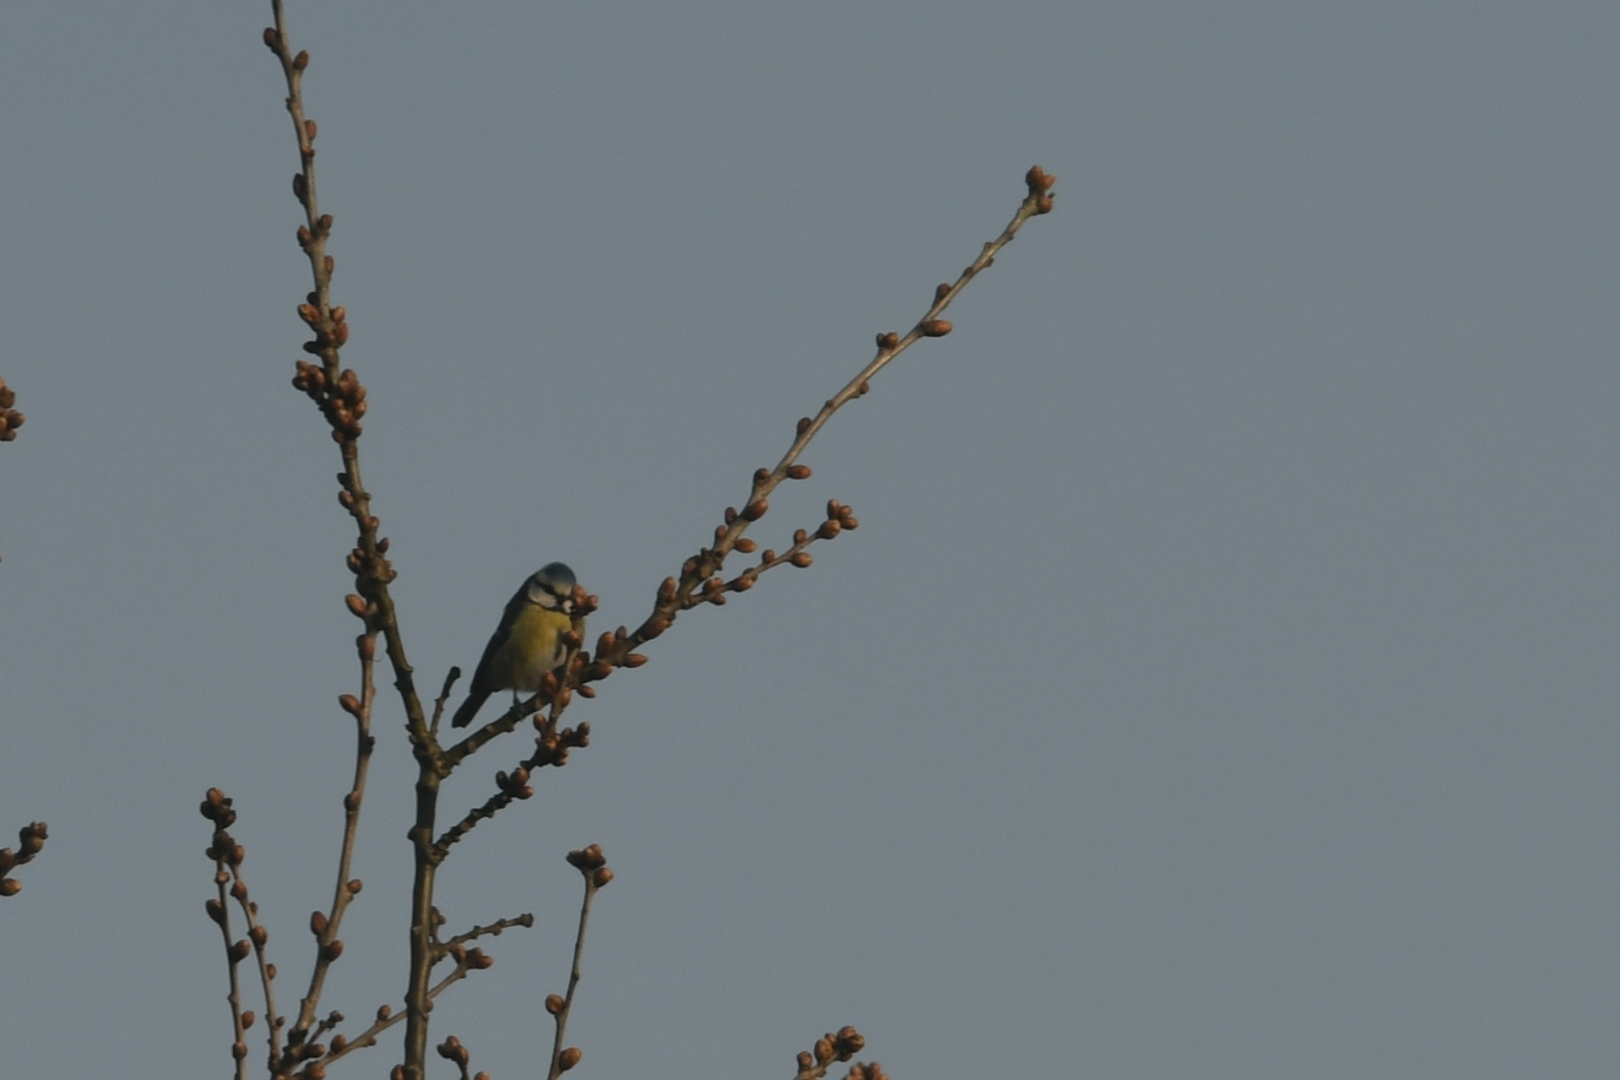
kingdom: Animalia
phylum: Chordata
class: Aves
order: Passeriformes
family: Paridae
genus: Cyanistes
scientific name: Cyanistes caeruleus
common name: Eurasian blue tit
